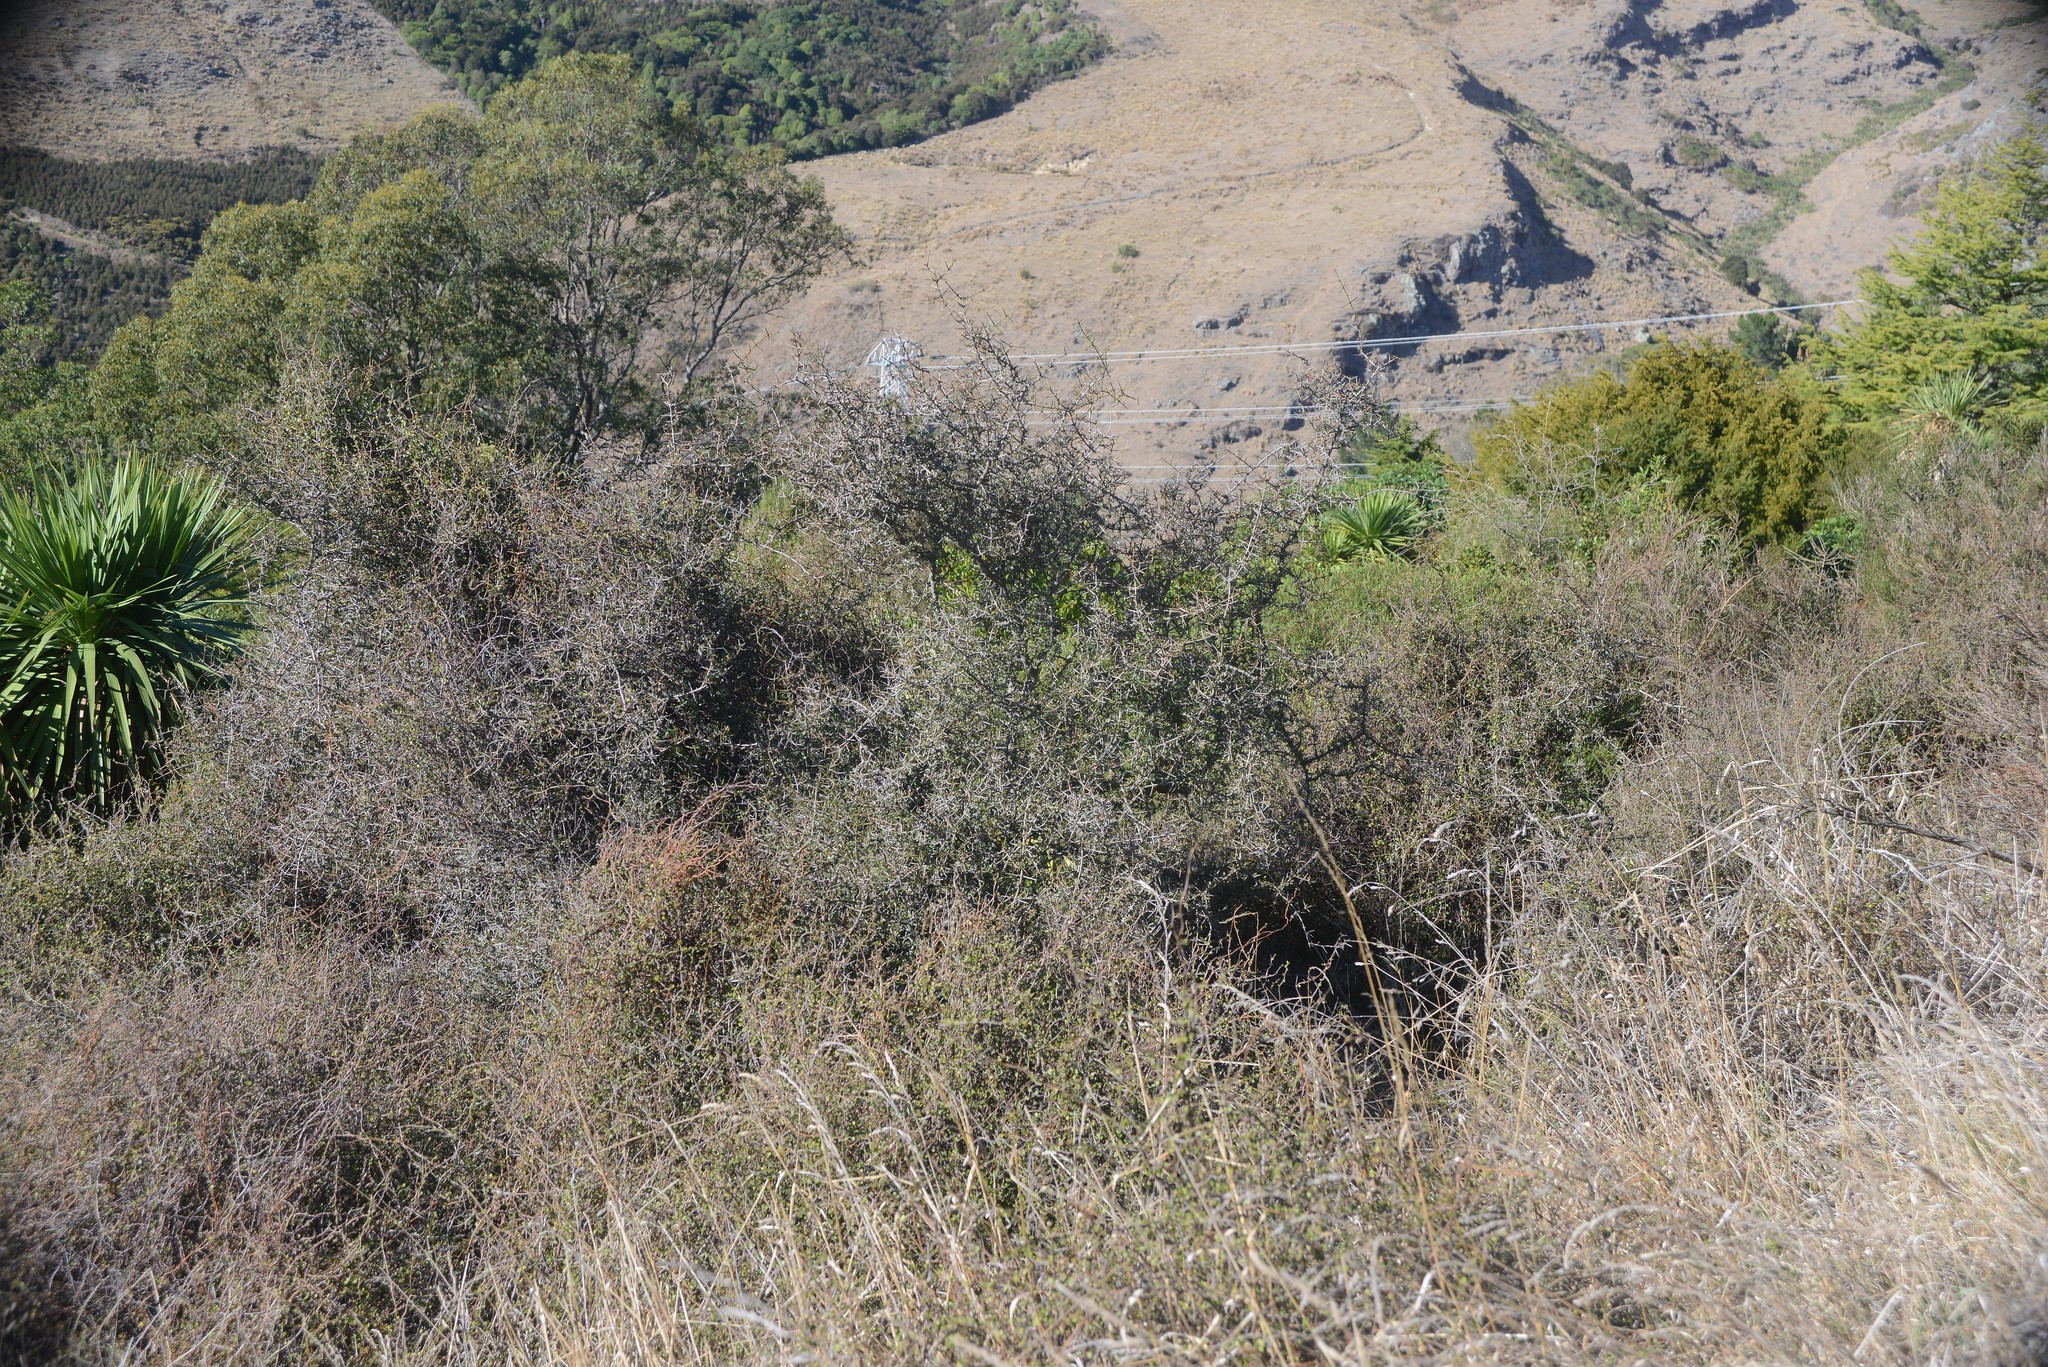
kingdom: Plantae
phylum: Tracheophyta
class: Magnoliopsida
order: Rosales
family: Rhamnaceae
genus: Discaria
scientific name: Discaria toumatou
